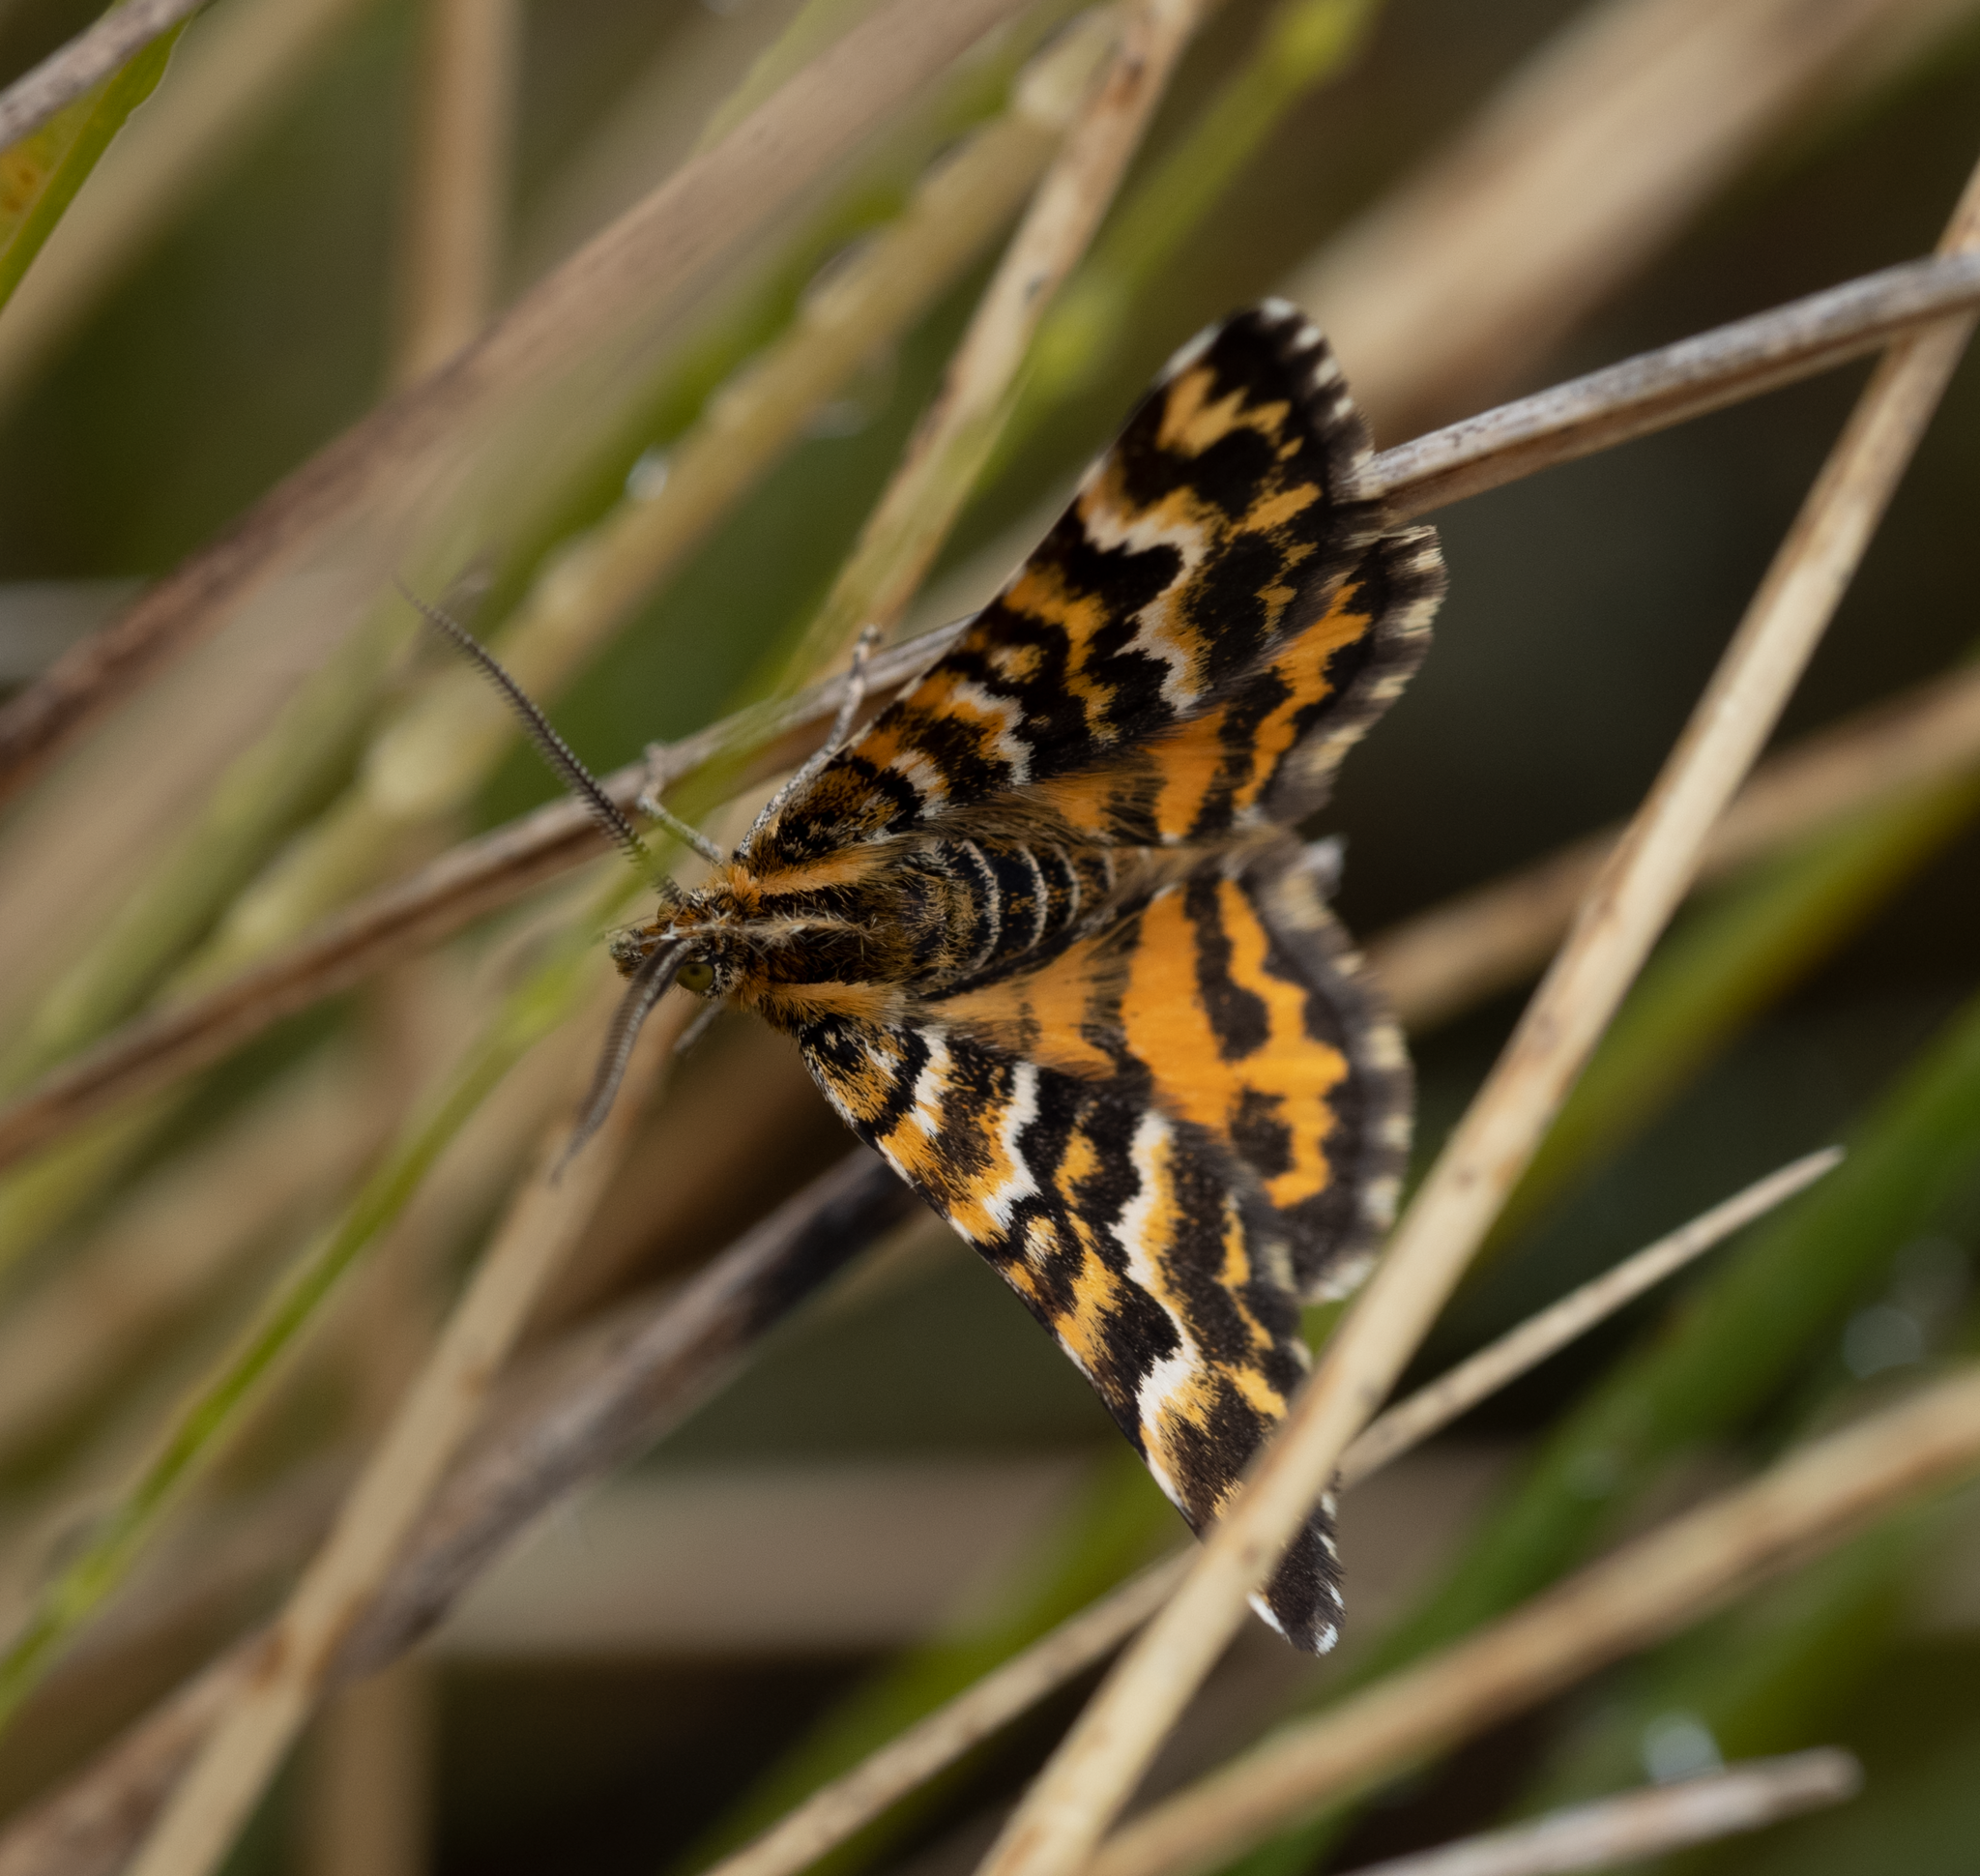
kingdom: Animalia
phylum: Arthropoda
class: Insecta
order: Lepidoptera
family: Geometridae
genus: Notoreas
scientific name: Notoreas perornata
